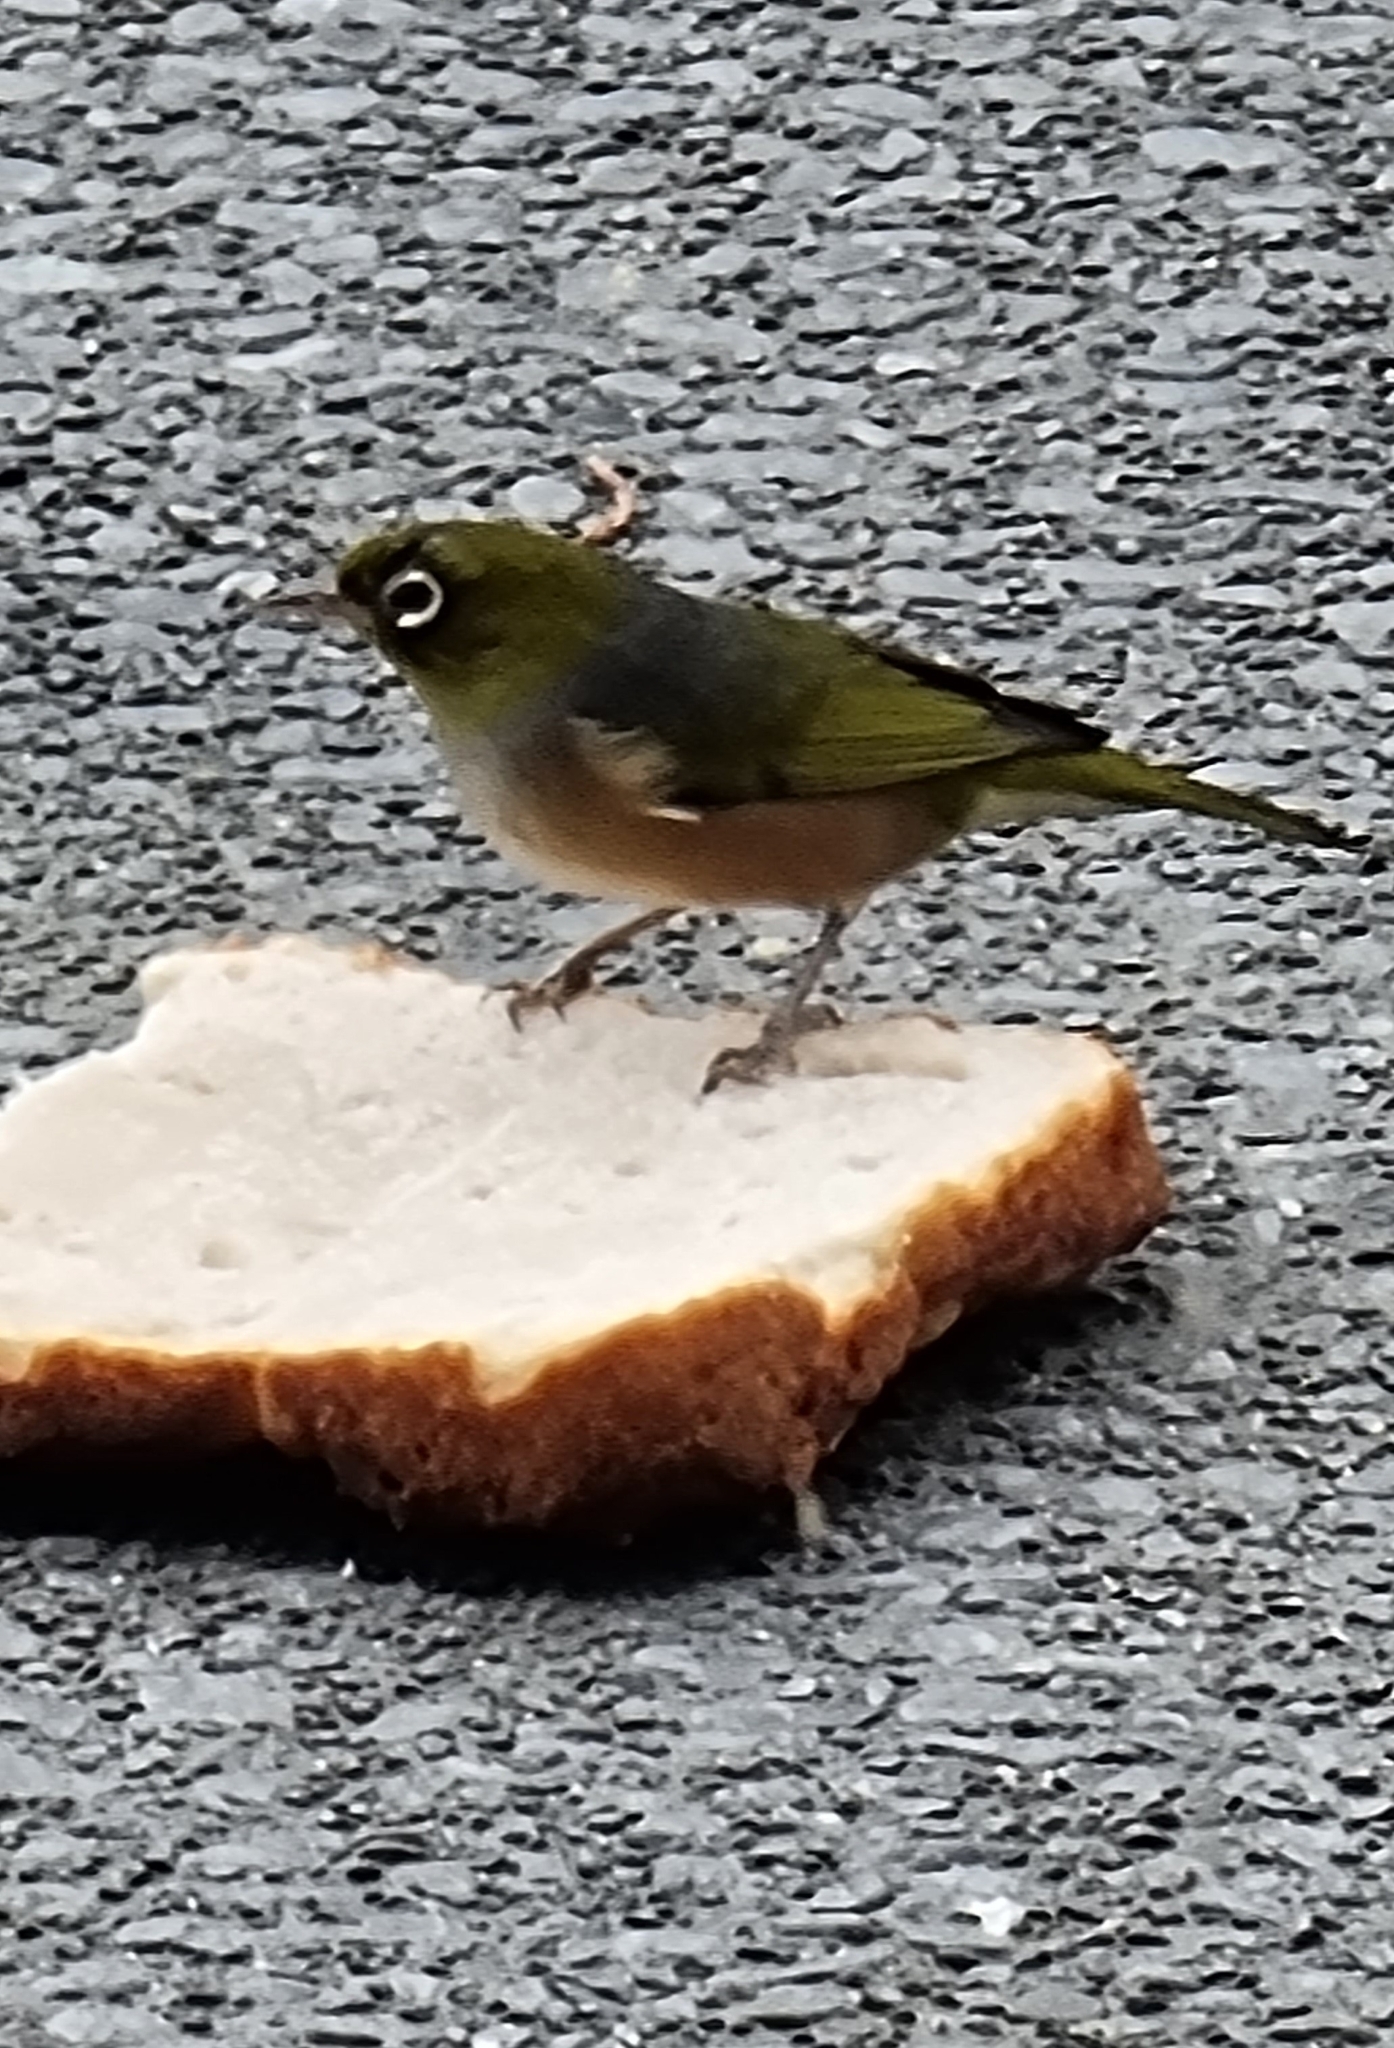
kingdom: Animalia
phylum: Chordata
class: Aves
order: Passeriformes
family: Zosteropidae
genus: Zosterops
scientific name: Zosterops lateralis
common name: Silvereye
